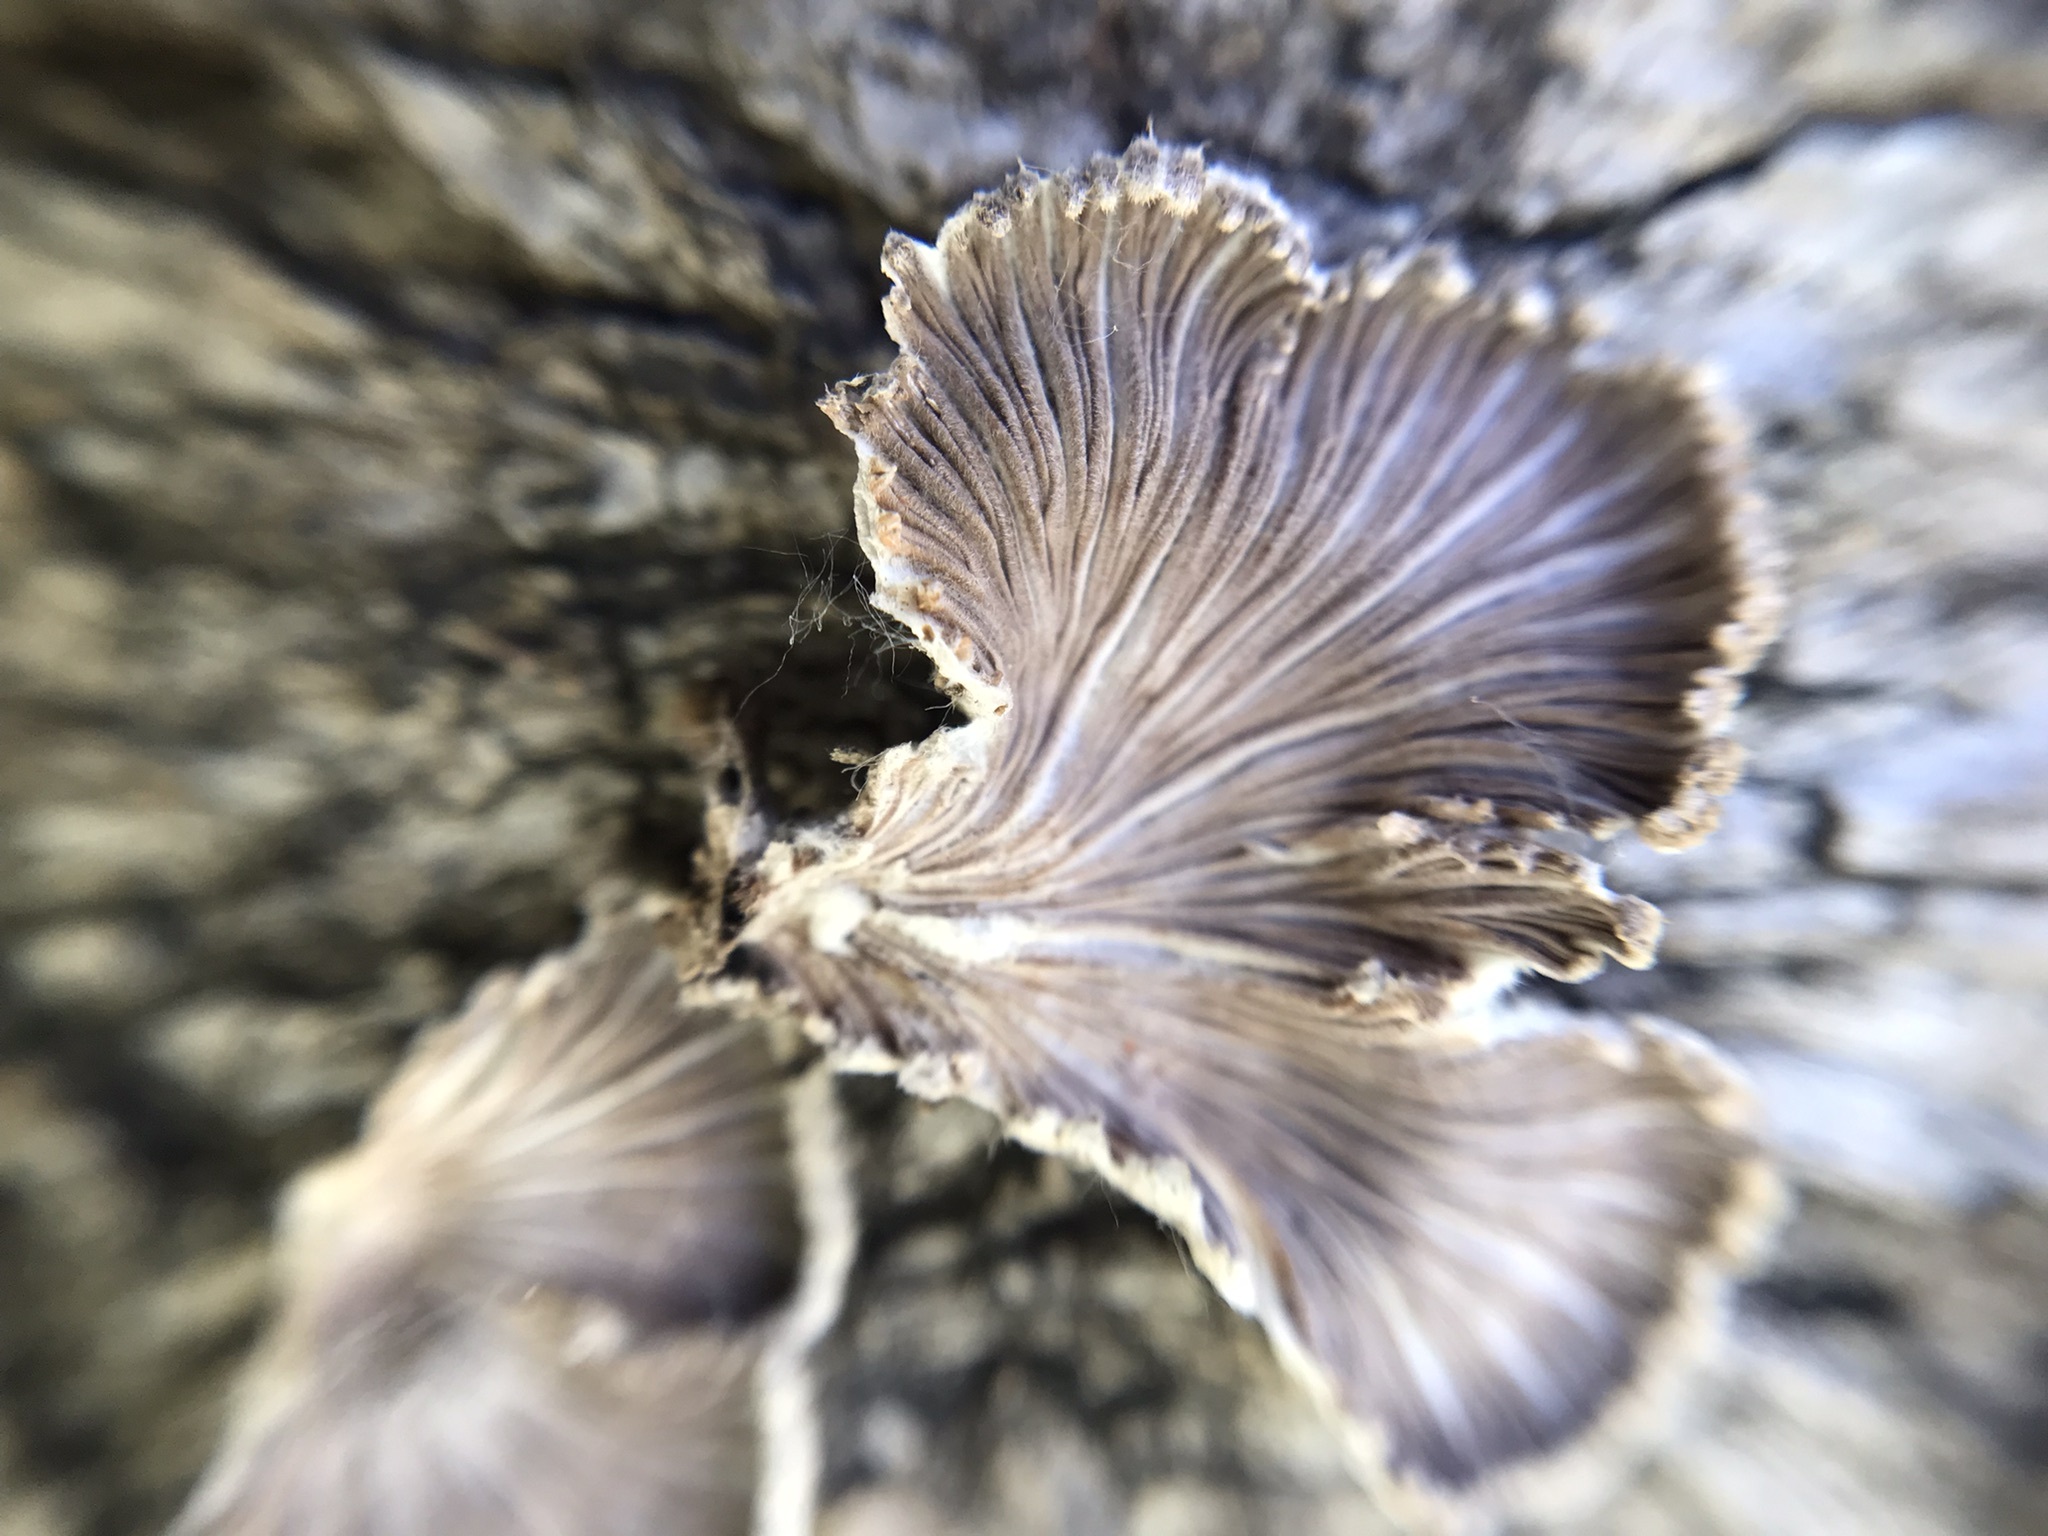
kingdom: Fungi
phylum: Basidiomycota
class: Agaricomycetes
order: Agaricales
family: Schizophyllaceae
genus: Schizophyllum
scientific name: Schizophyllum commune
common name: Common porecrust
